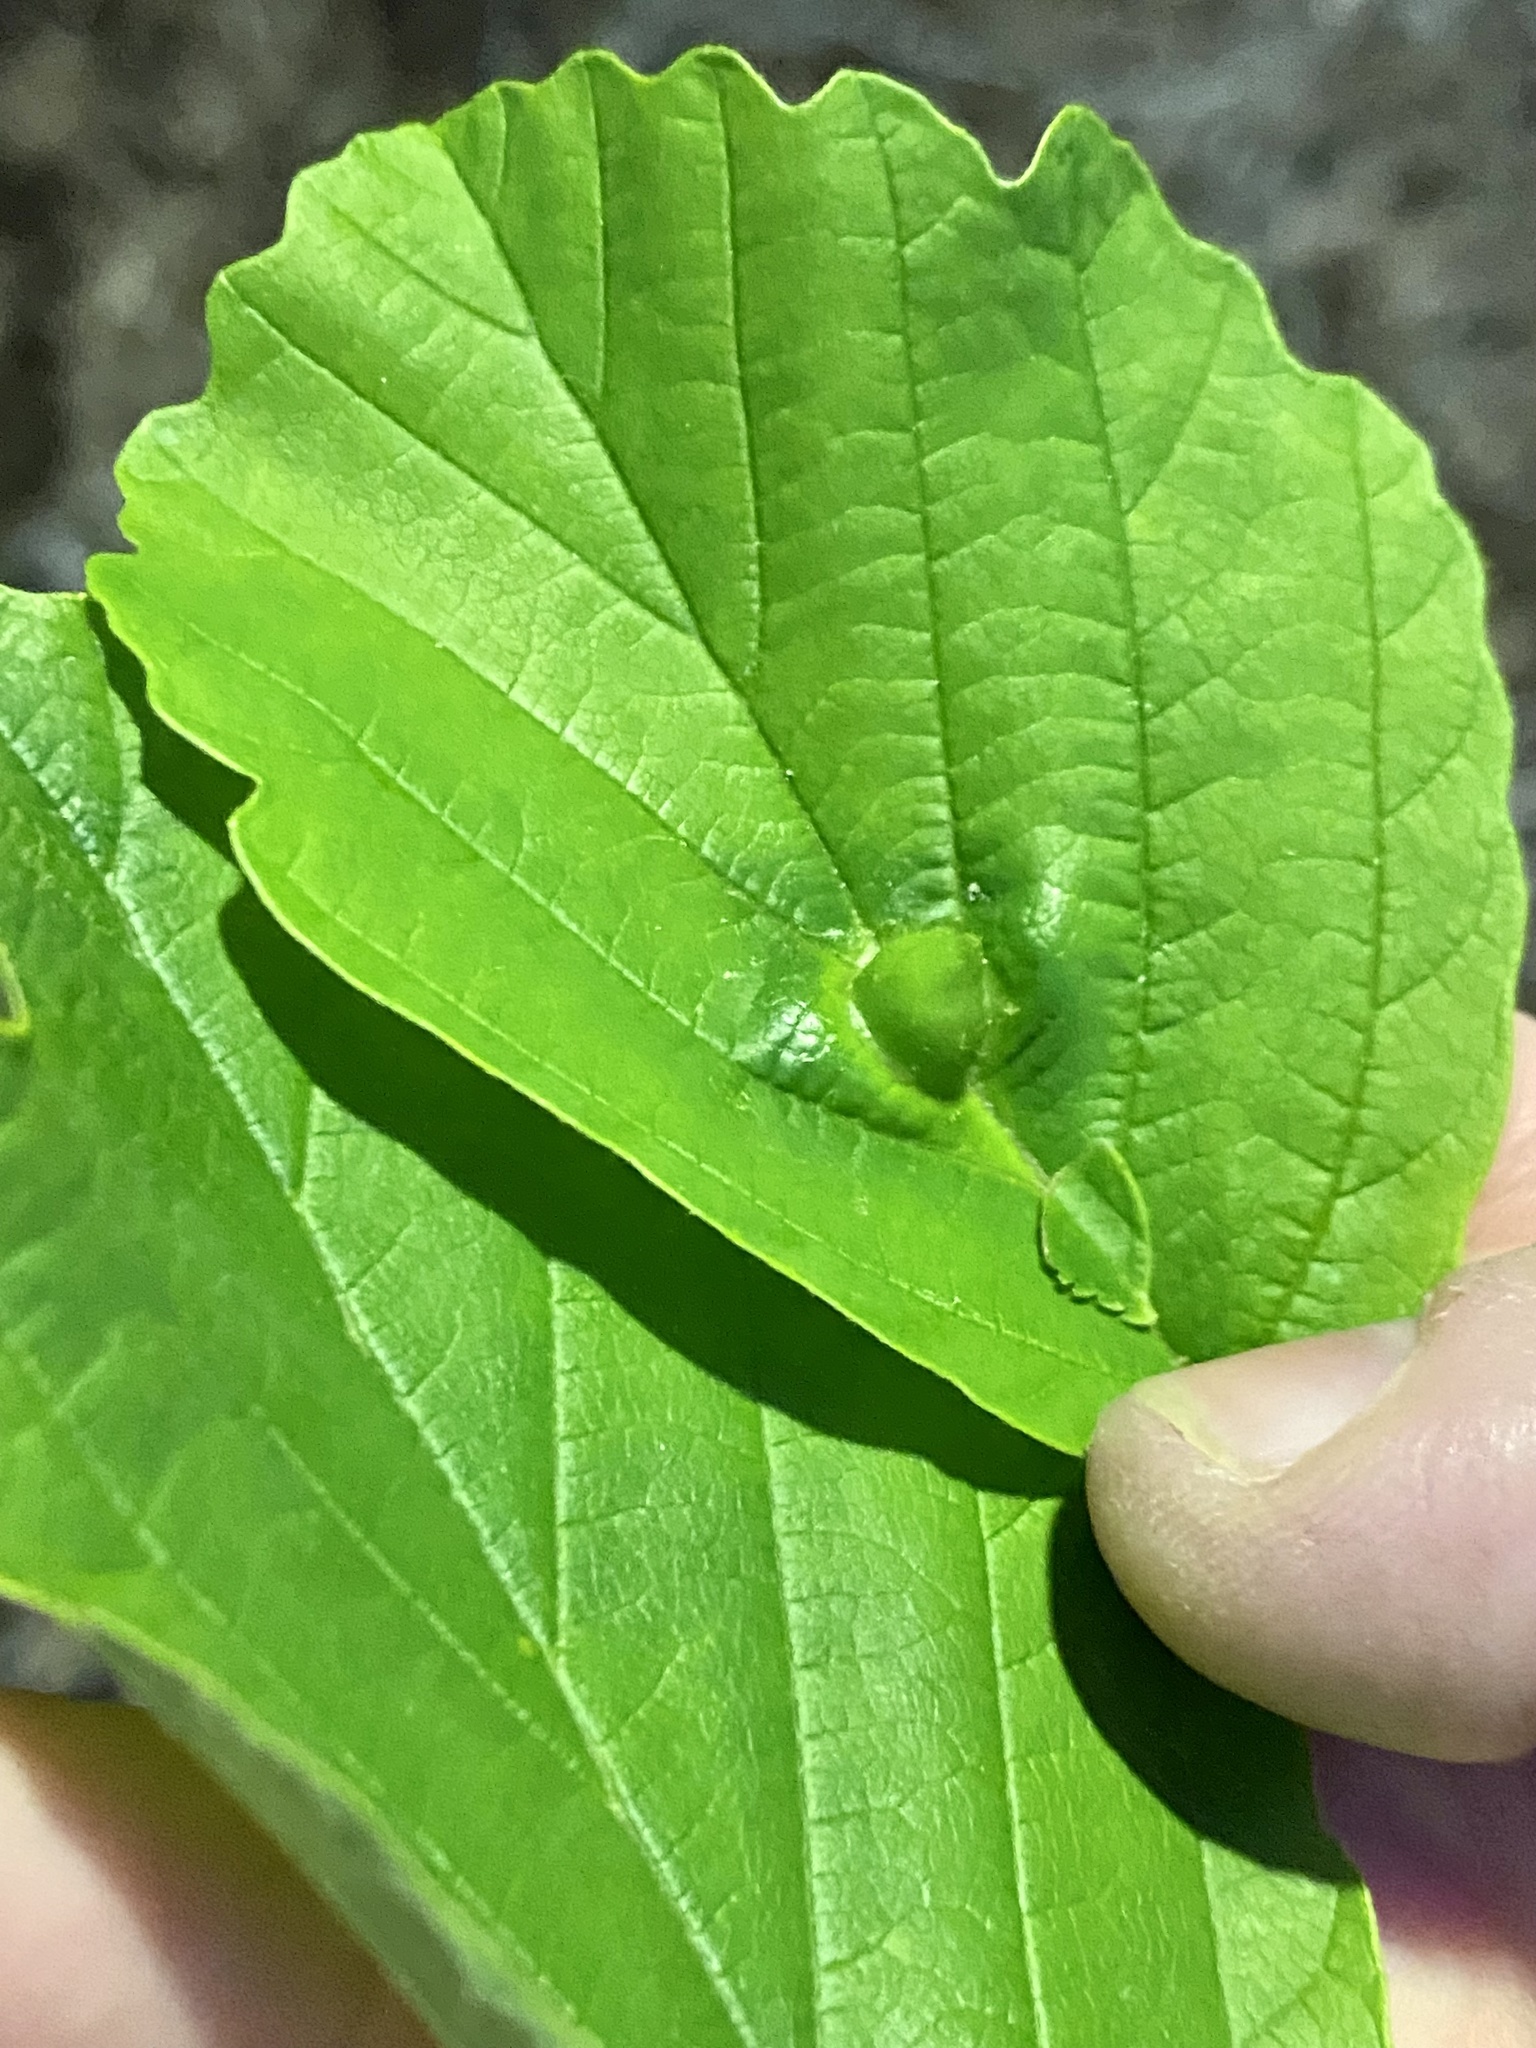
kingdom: Animalia
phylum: Arthropoda
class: Insecta
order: Hemiptera
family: Aphididae
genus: Hormaphis
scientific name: Hormaphis hamamelidis
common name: Witch-hazel cone gall aphid
